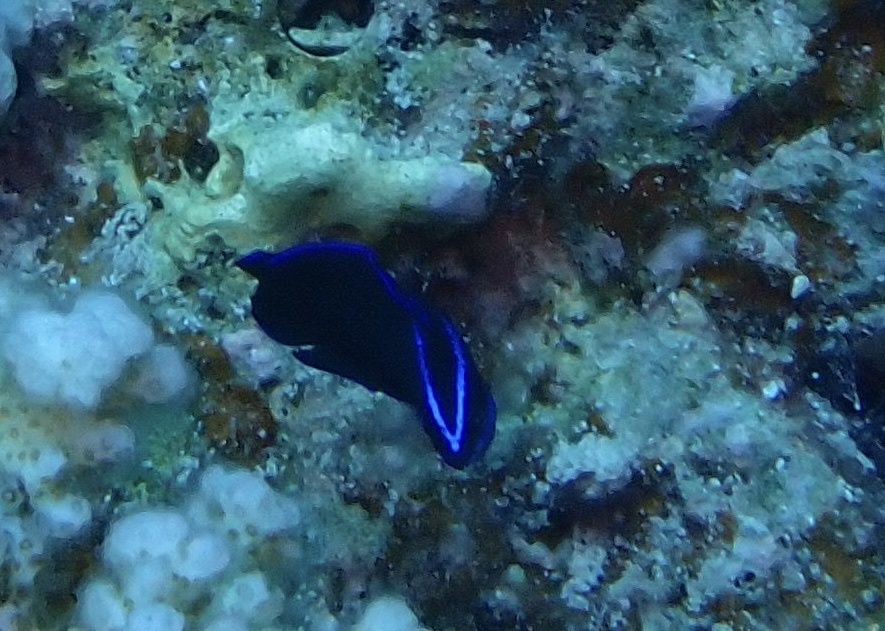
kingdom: Animalia
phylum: Chordata
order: Perciformes
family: Pseudochromidae
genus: Pseudochromis
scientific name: Pseudochromis springeri
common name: Blue-striped dottyback
